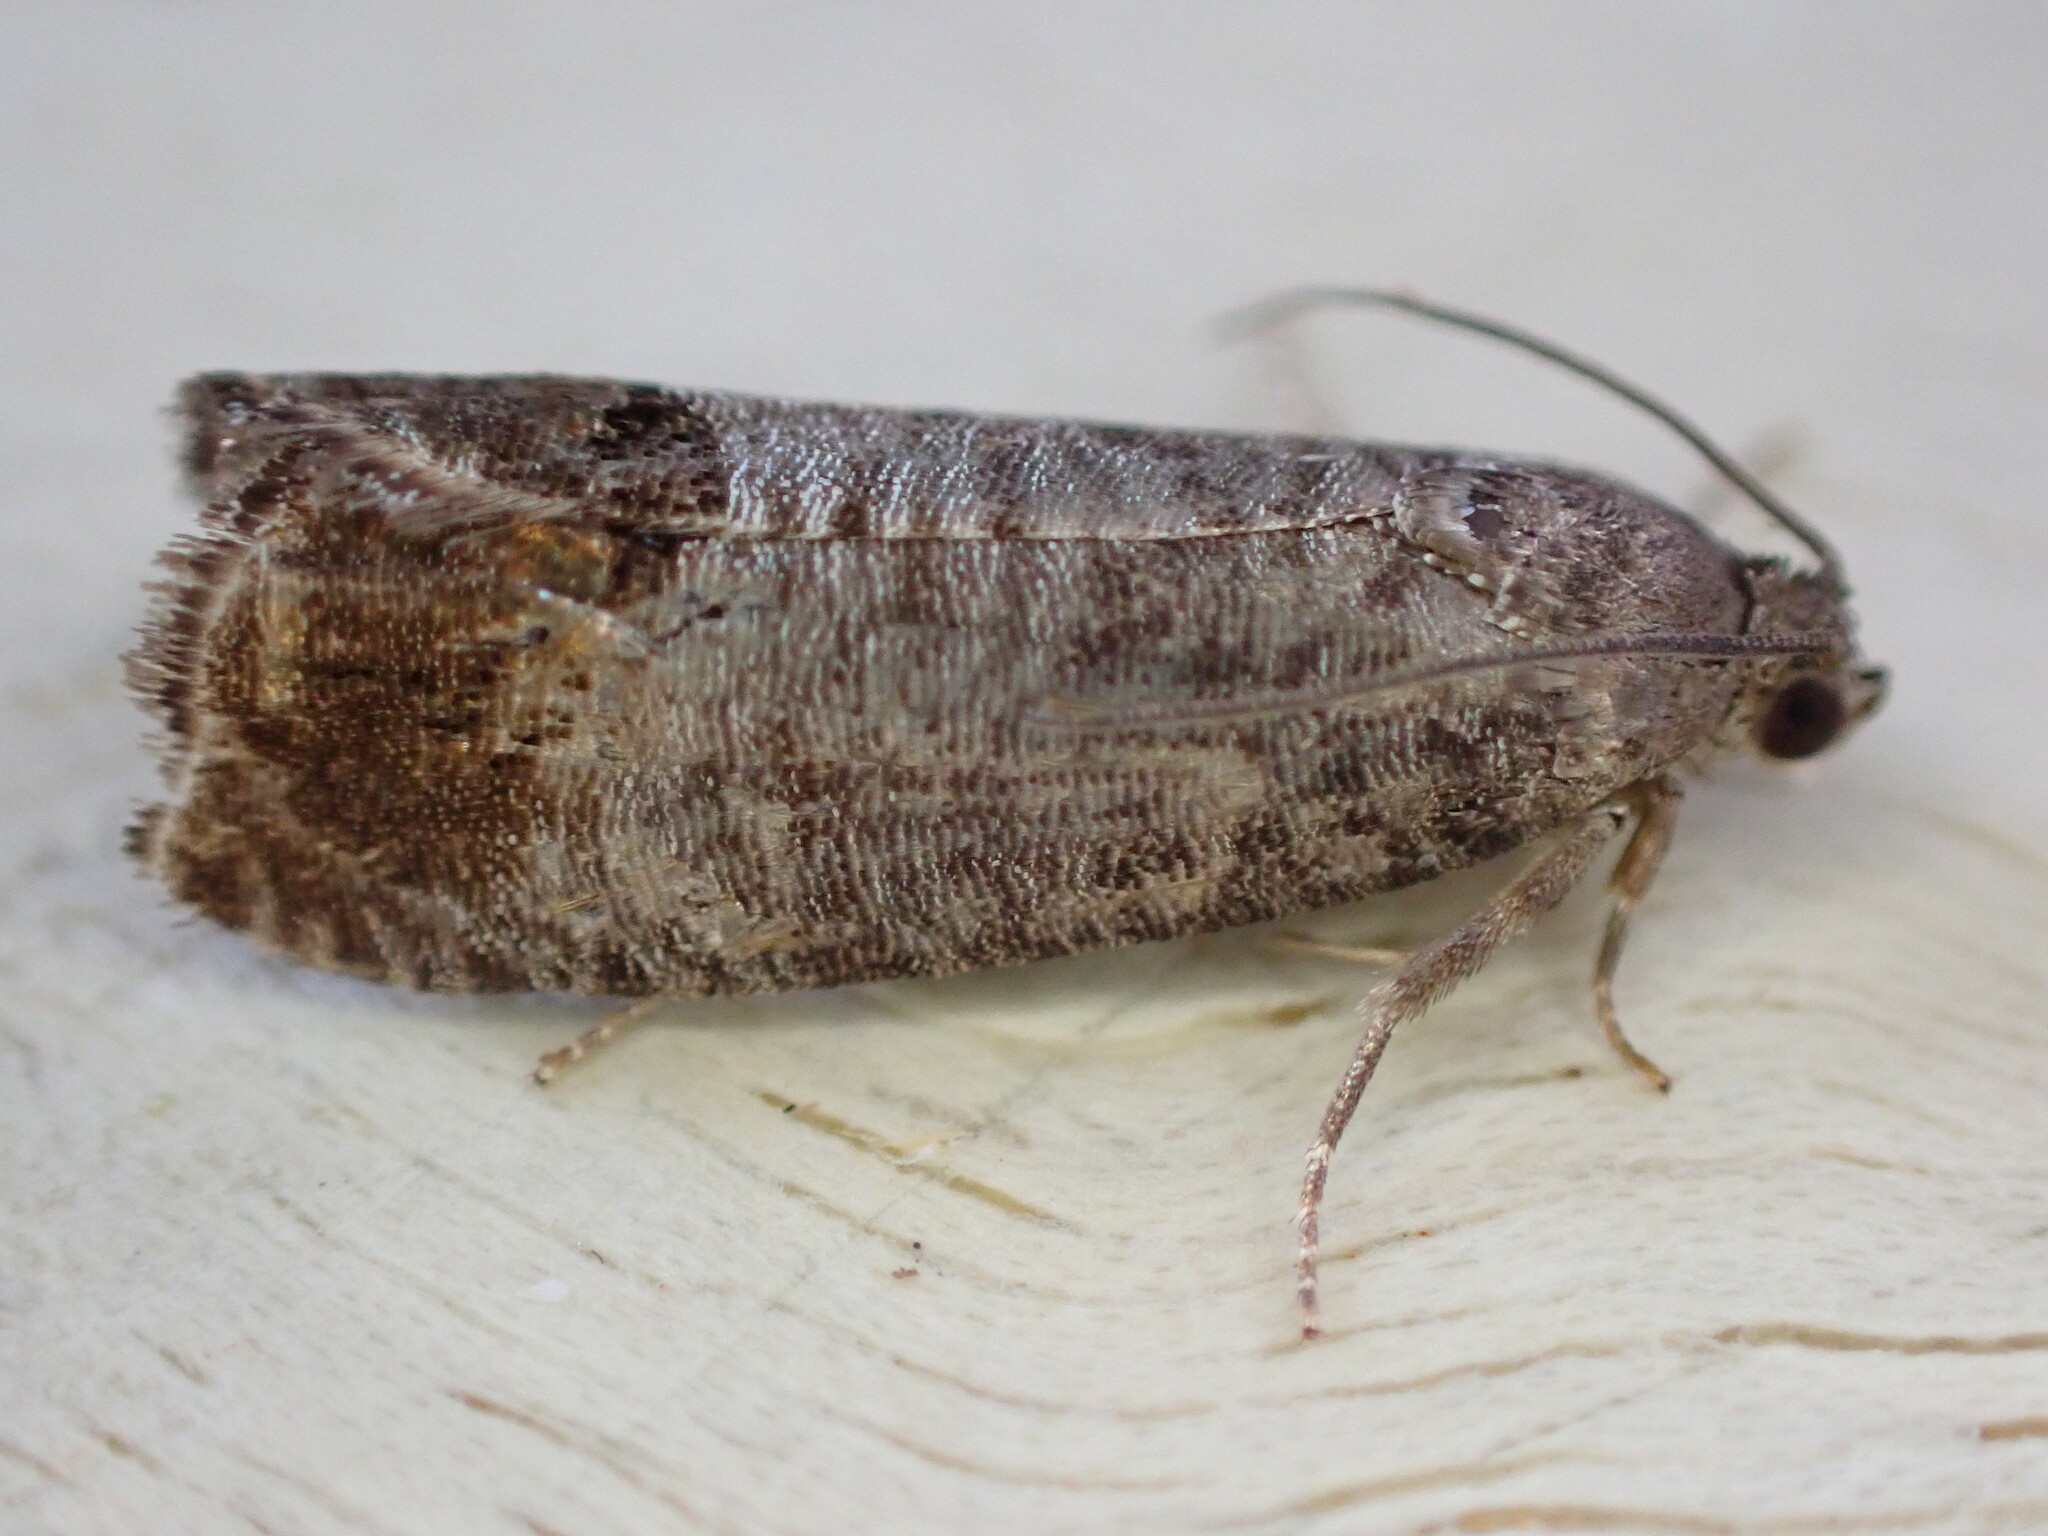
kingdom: Animalia
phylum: Arthropoda
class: Insecta
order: Lepidoptera
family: Tortricidae
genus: Cydia
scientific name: Cydia pomonella
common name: Codling moth
